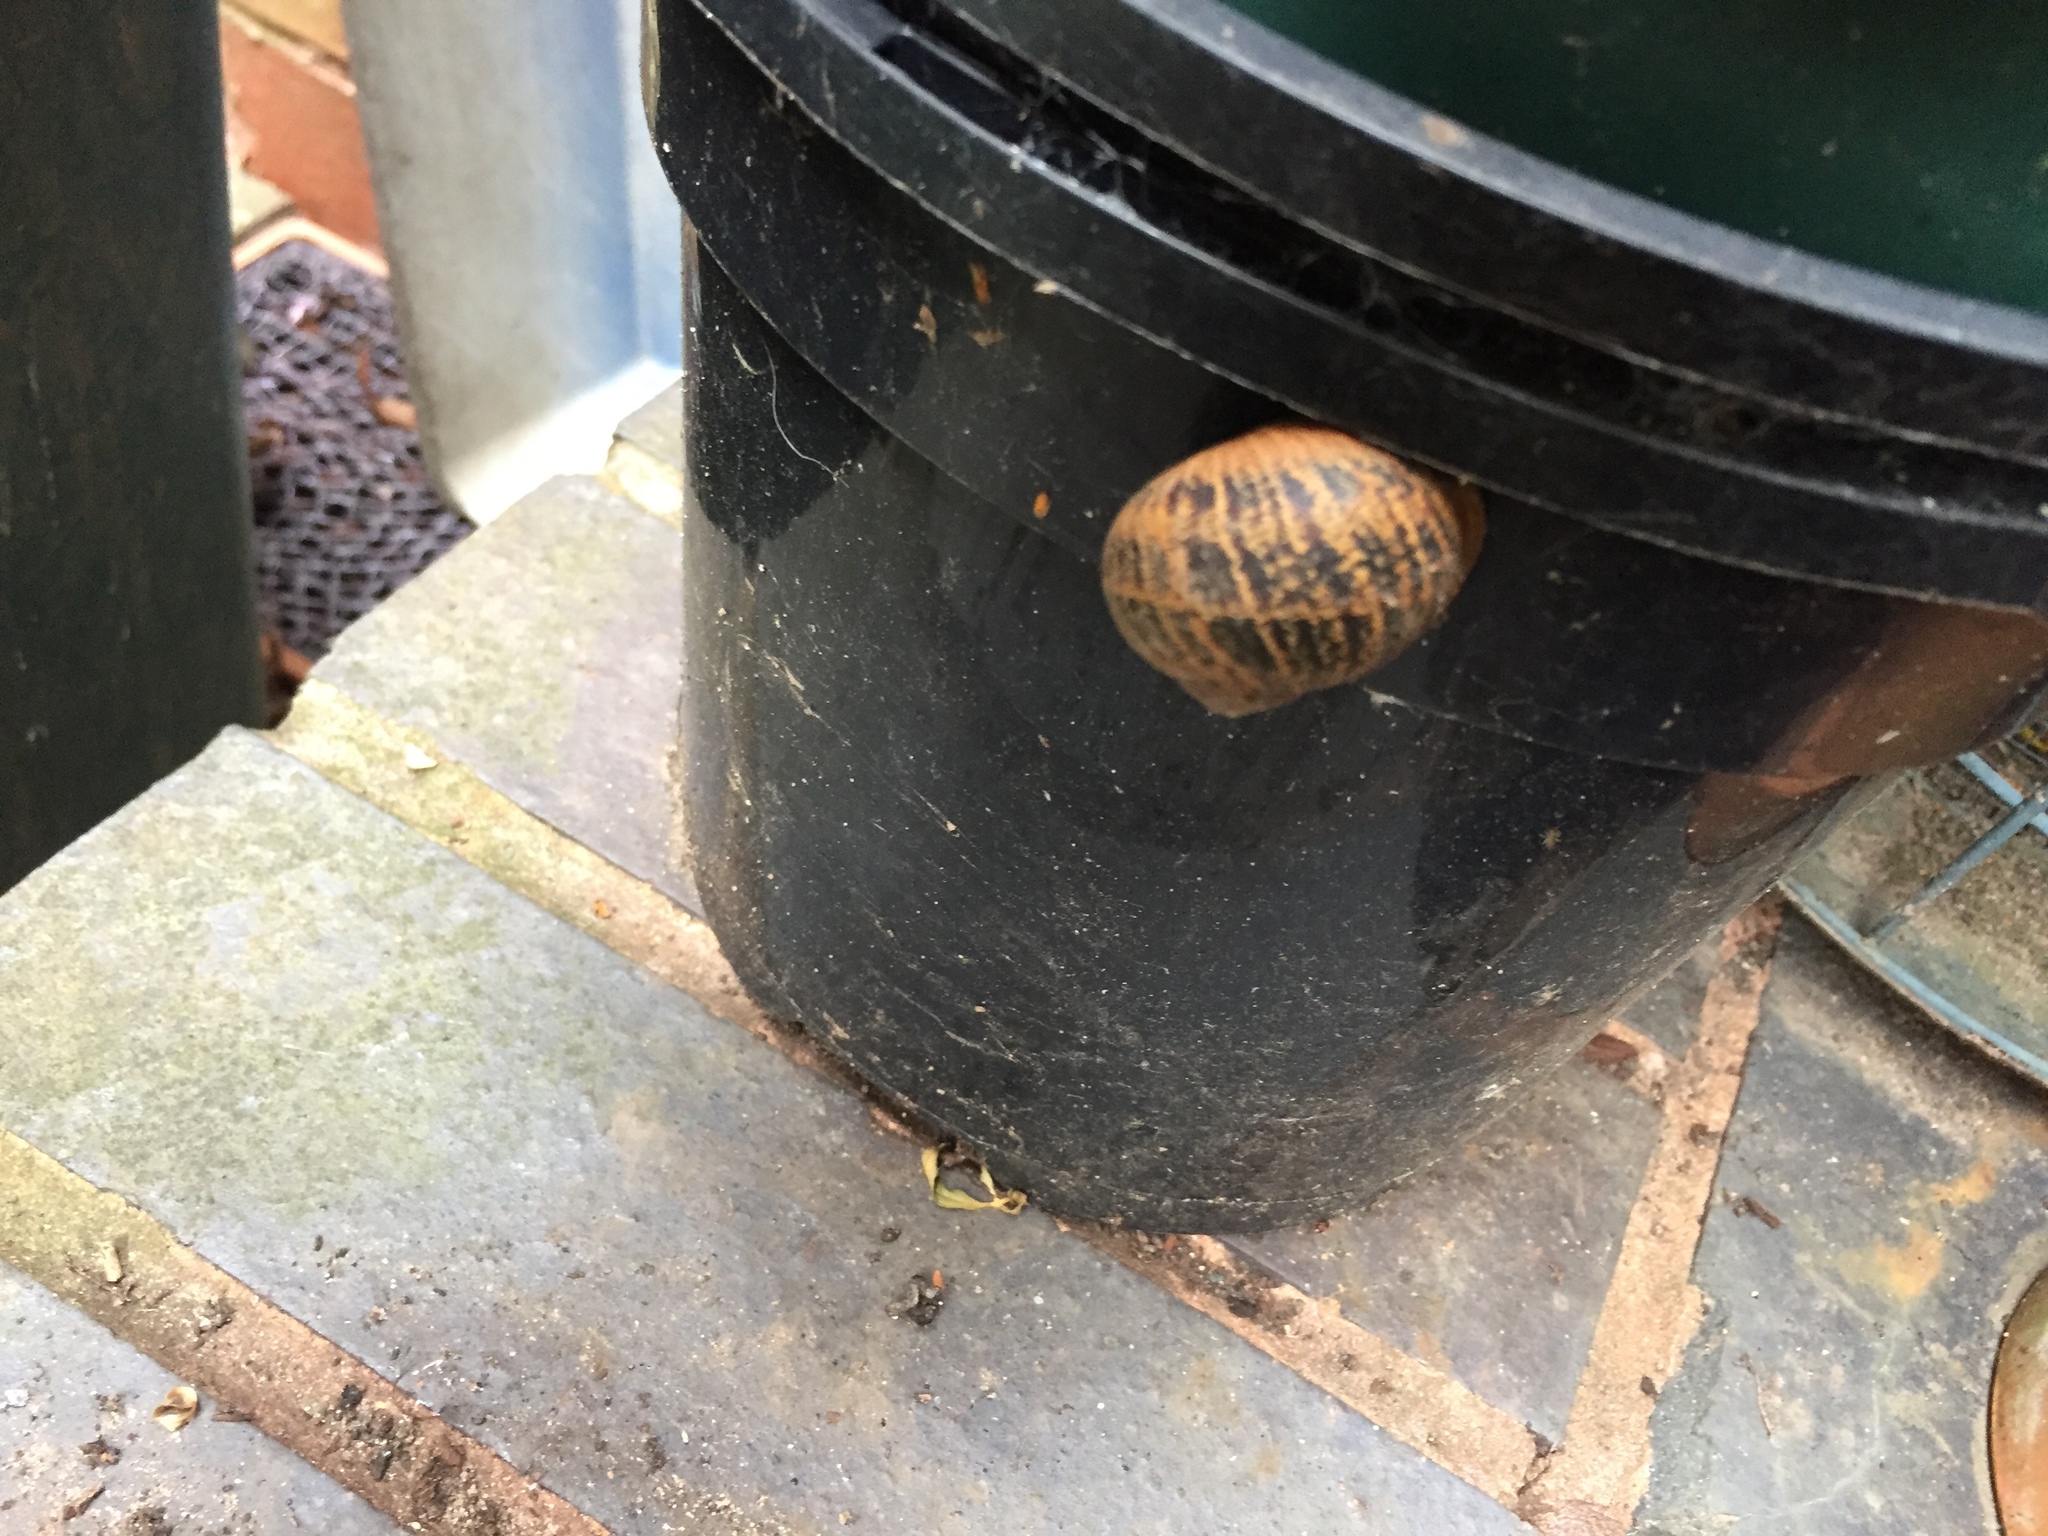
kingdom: Animalia
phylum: Mollusca
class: Gastropoda
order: Stylommatophora
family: Helicidae
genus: Cornu
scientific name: Cornu aspersum
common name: Brown garden snail
